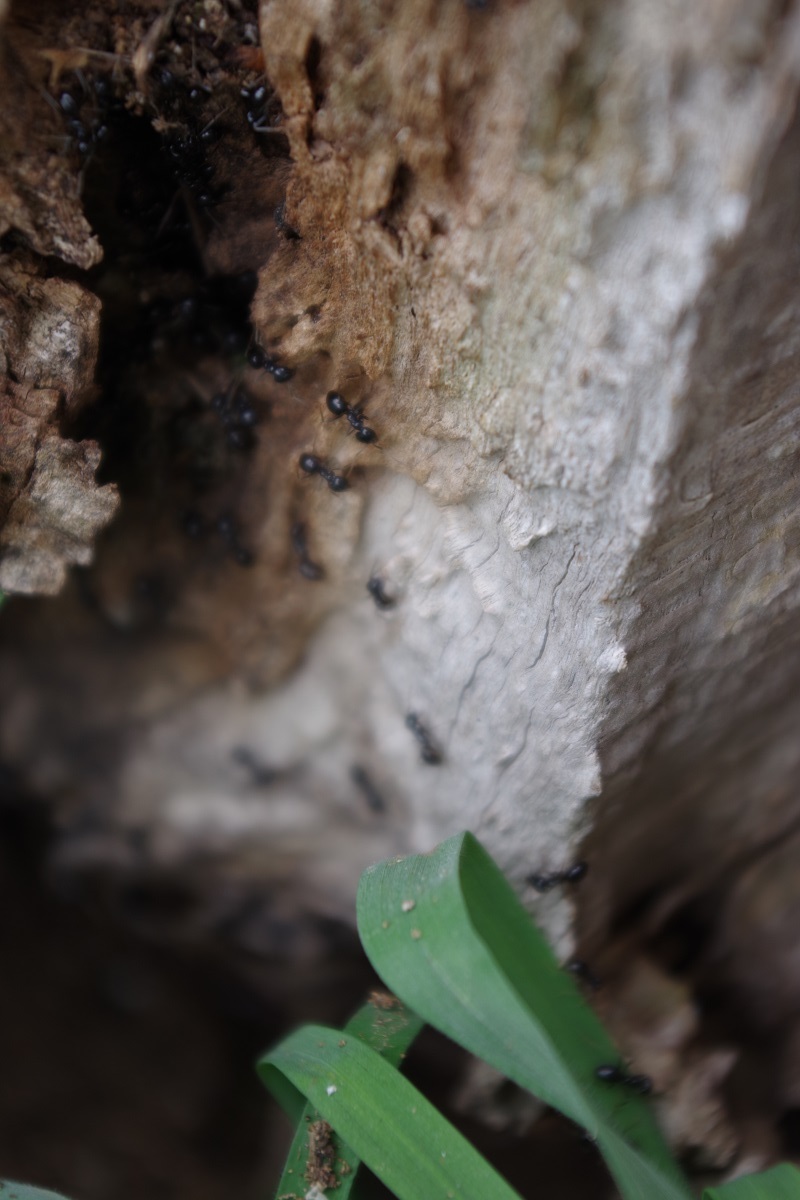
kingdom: Animalia
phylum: Arthropoda
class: Insecta
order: Hymenoptera
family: Formicidae
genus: Lasius
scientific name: Lasius fuliginosus
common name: Jet ant
